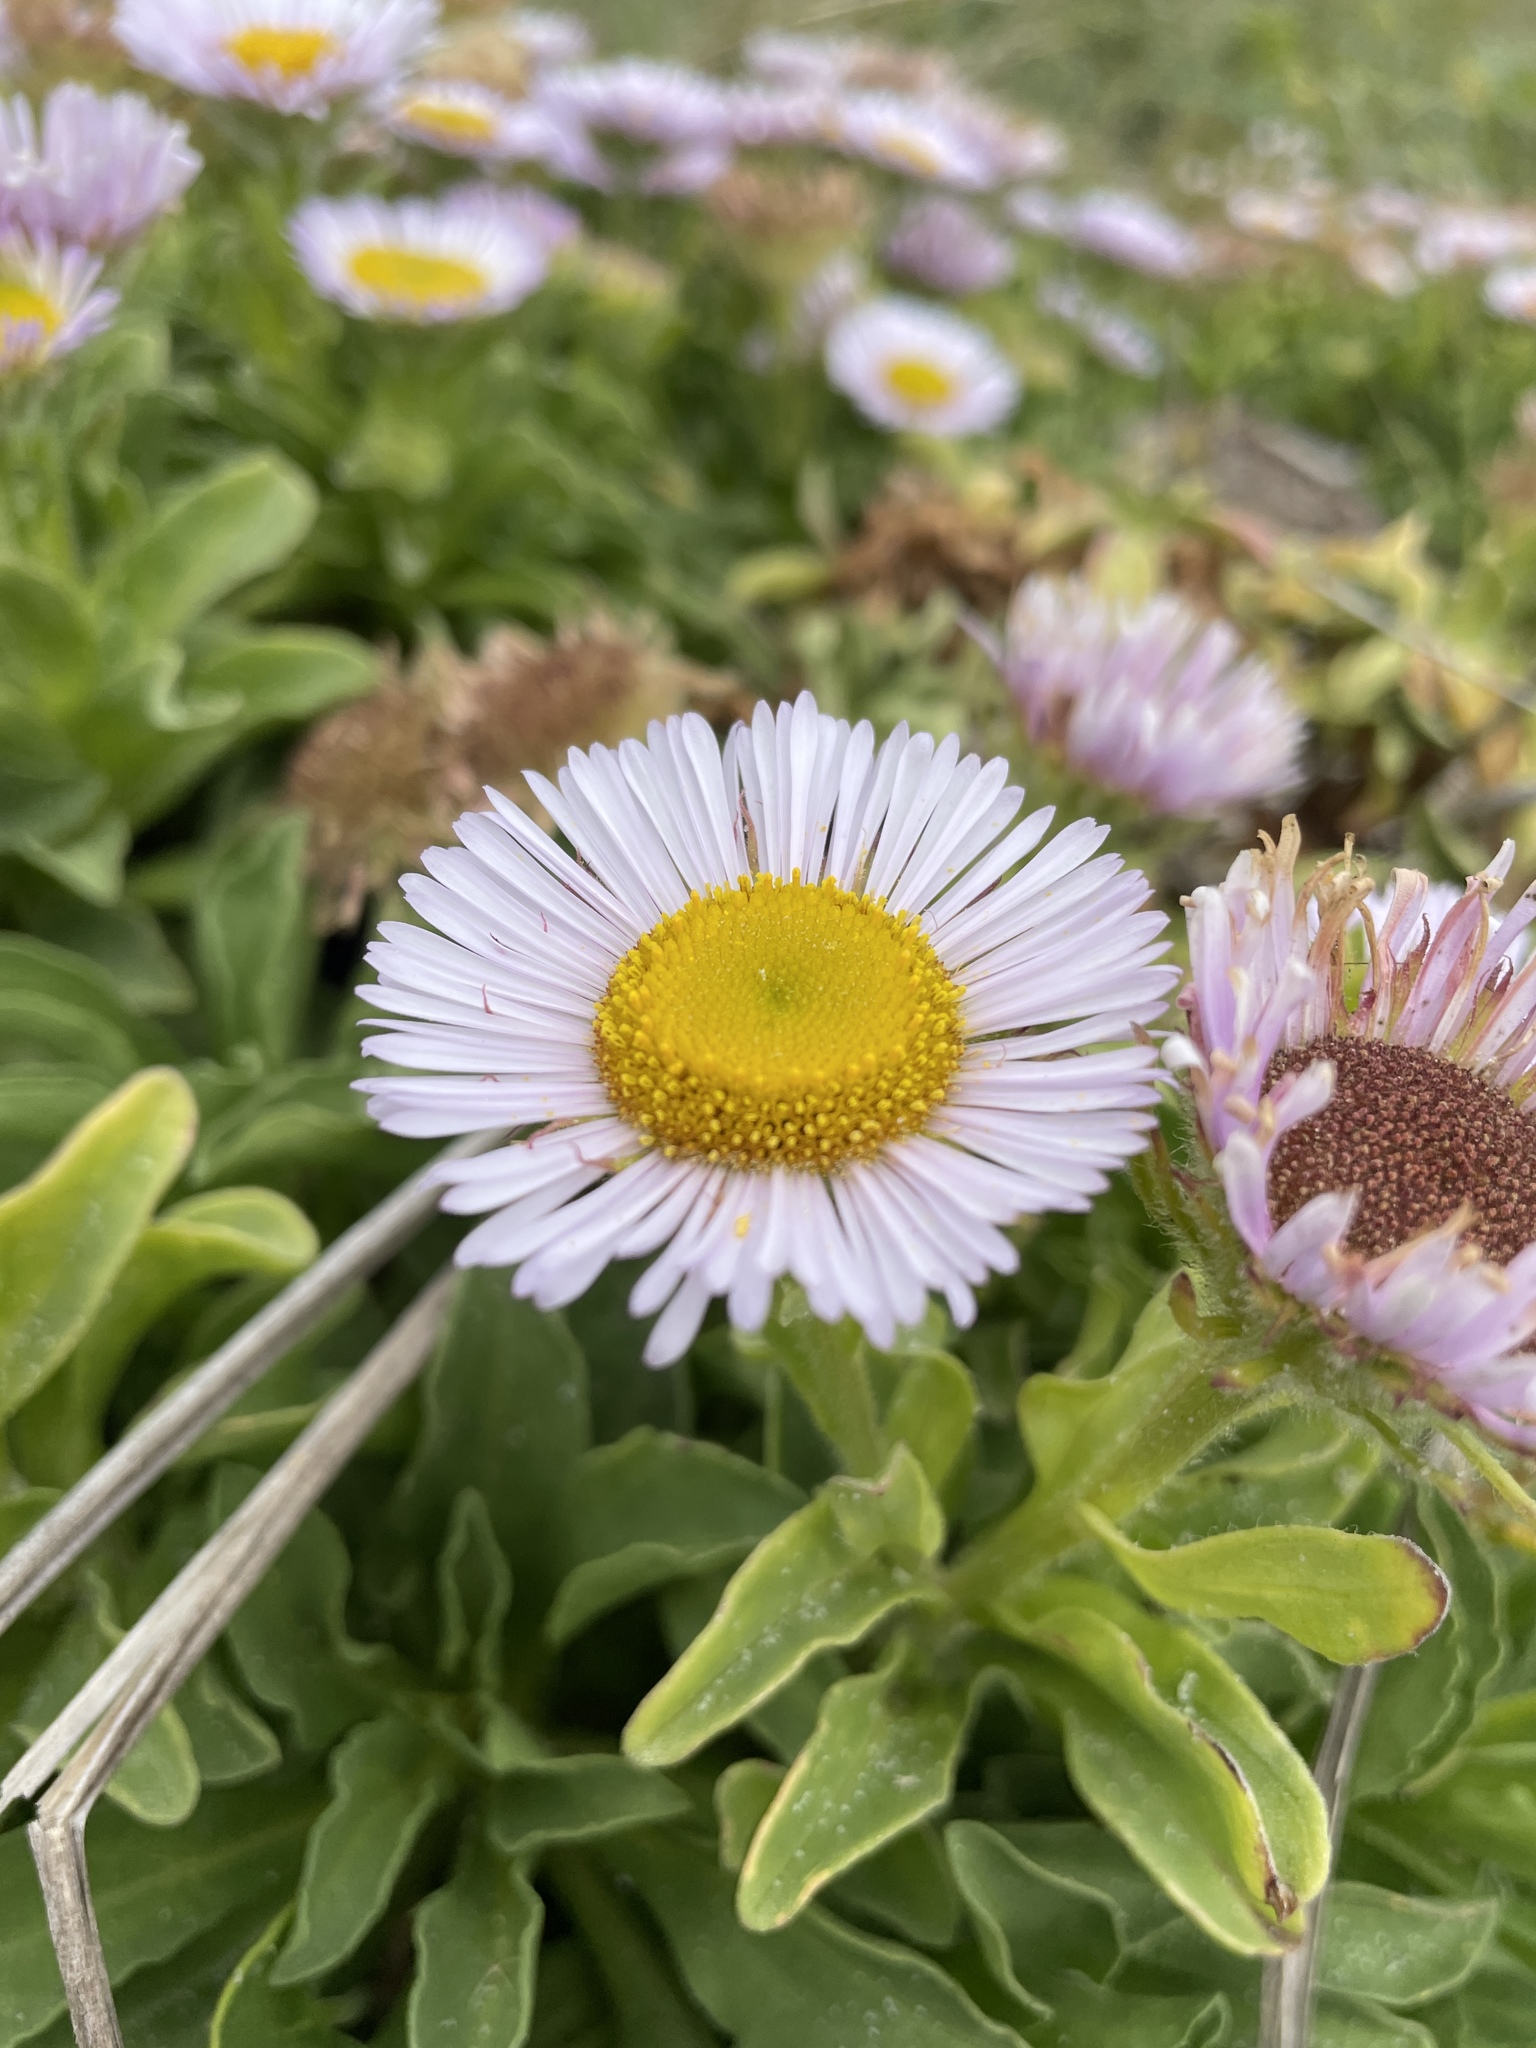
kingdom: Plantae
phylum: Tracheophyta
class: Magnoliopsida
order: Asterales
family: Asteraceae
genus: Erigeron
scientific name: Erigeron glaucus
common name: Seaside daisy
